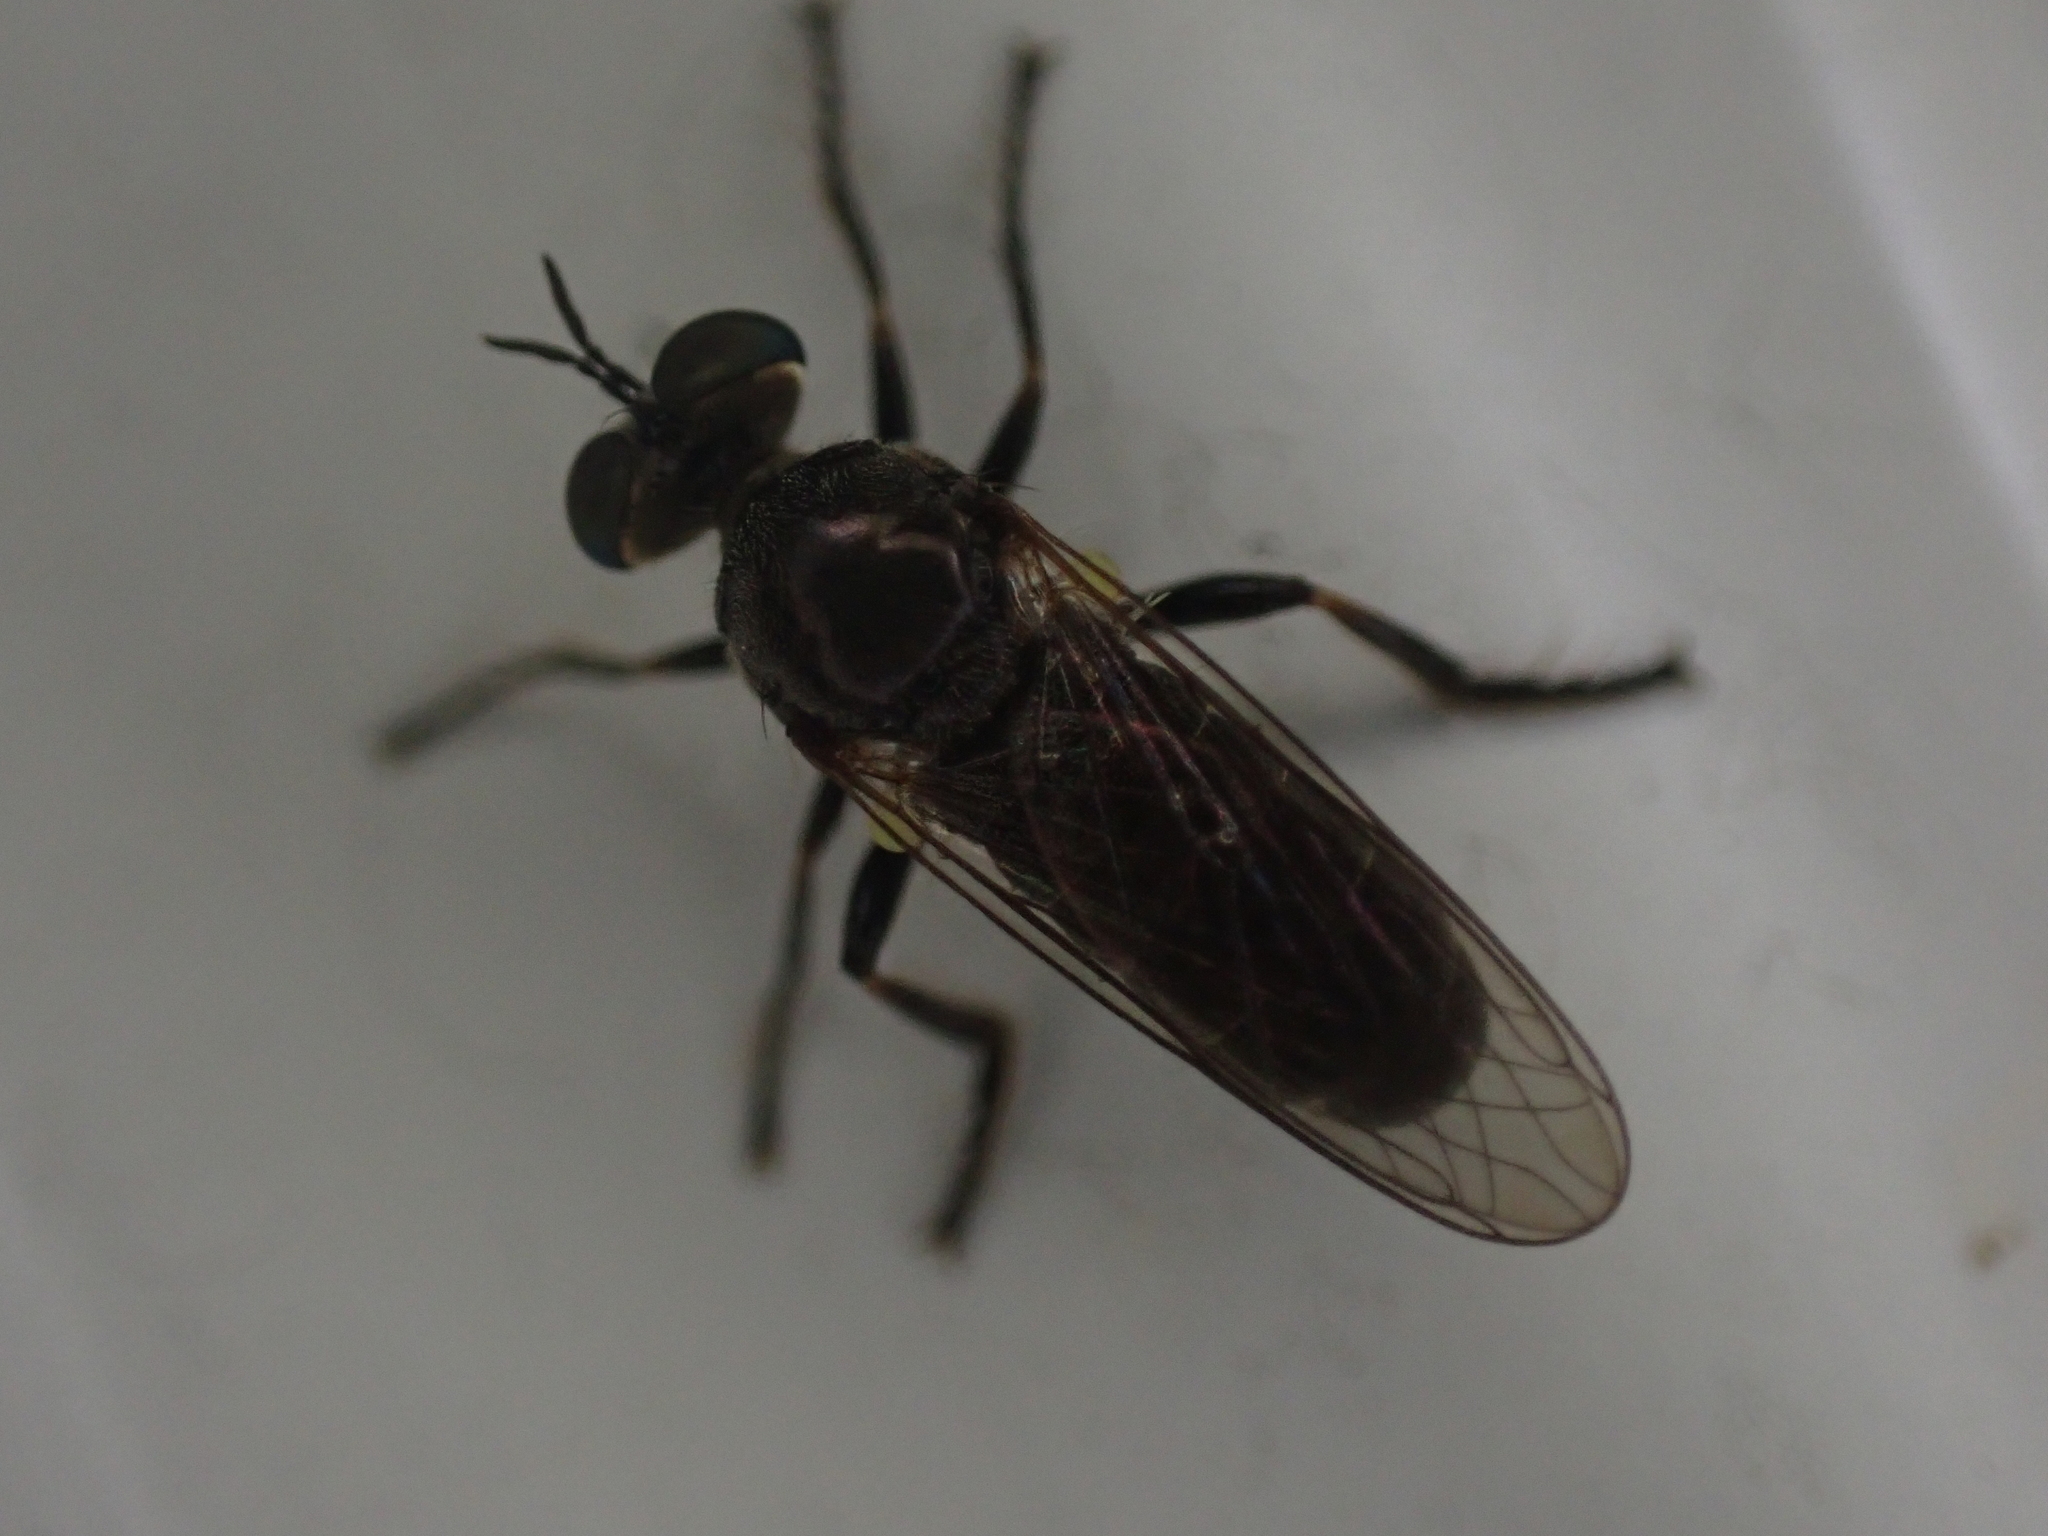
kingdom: Animalia
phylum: Arthropoda
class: Insecta
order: Diptera
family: Asilidae
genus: Atomosia
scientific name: Atomosia puella
